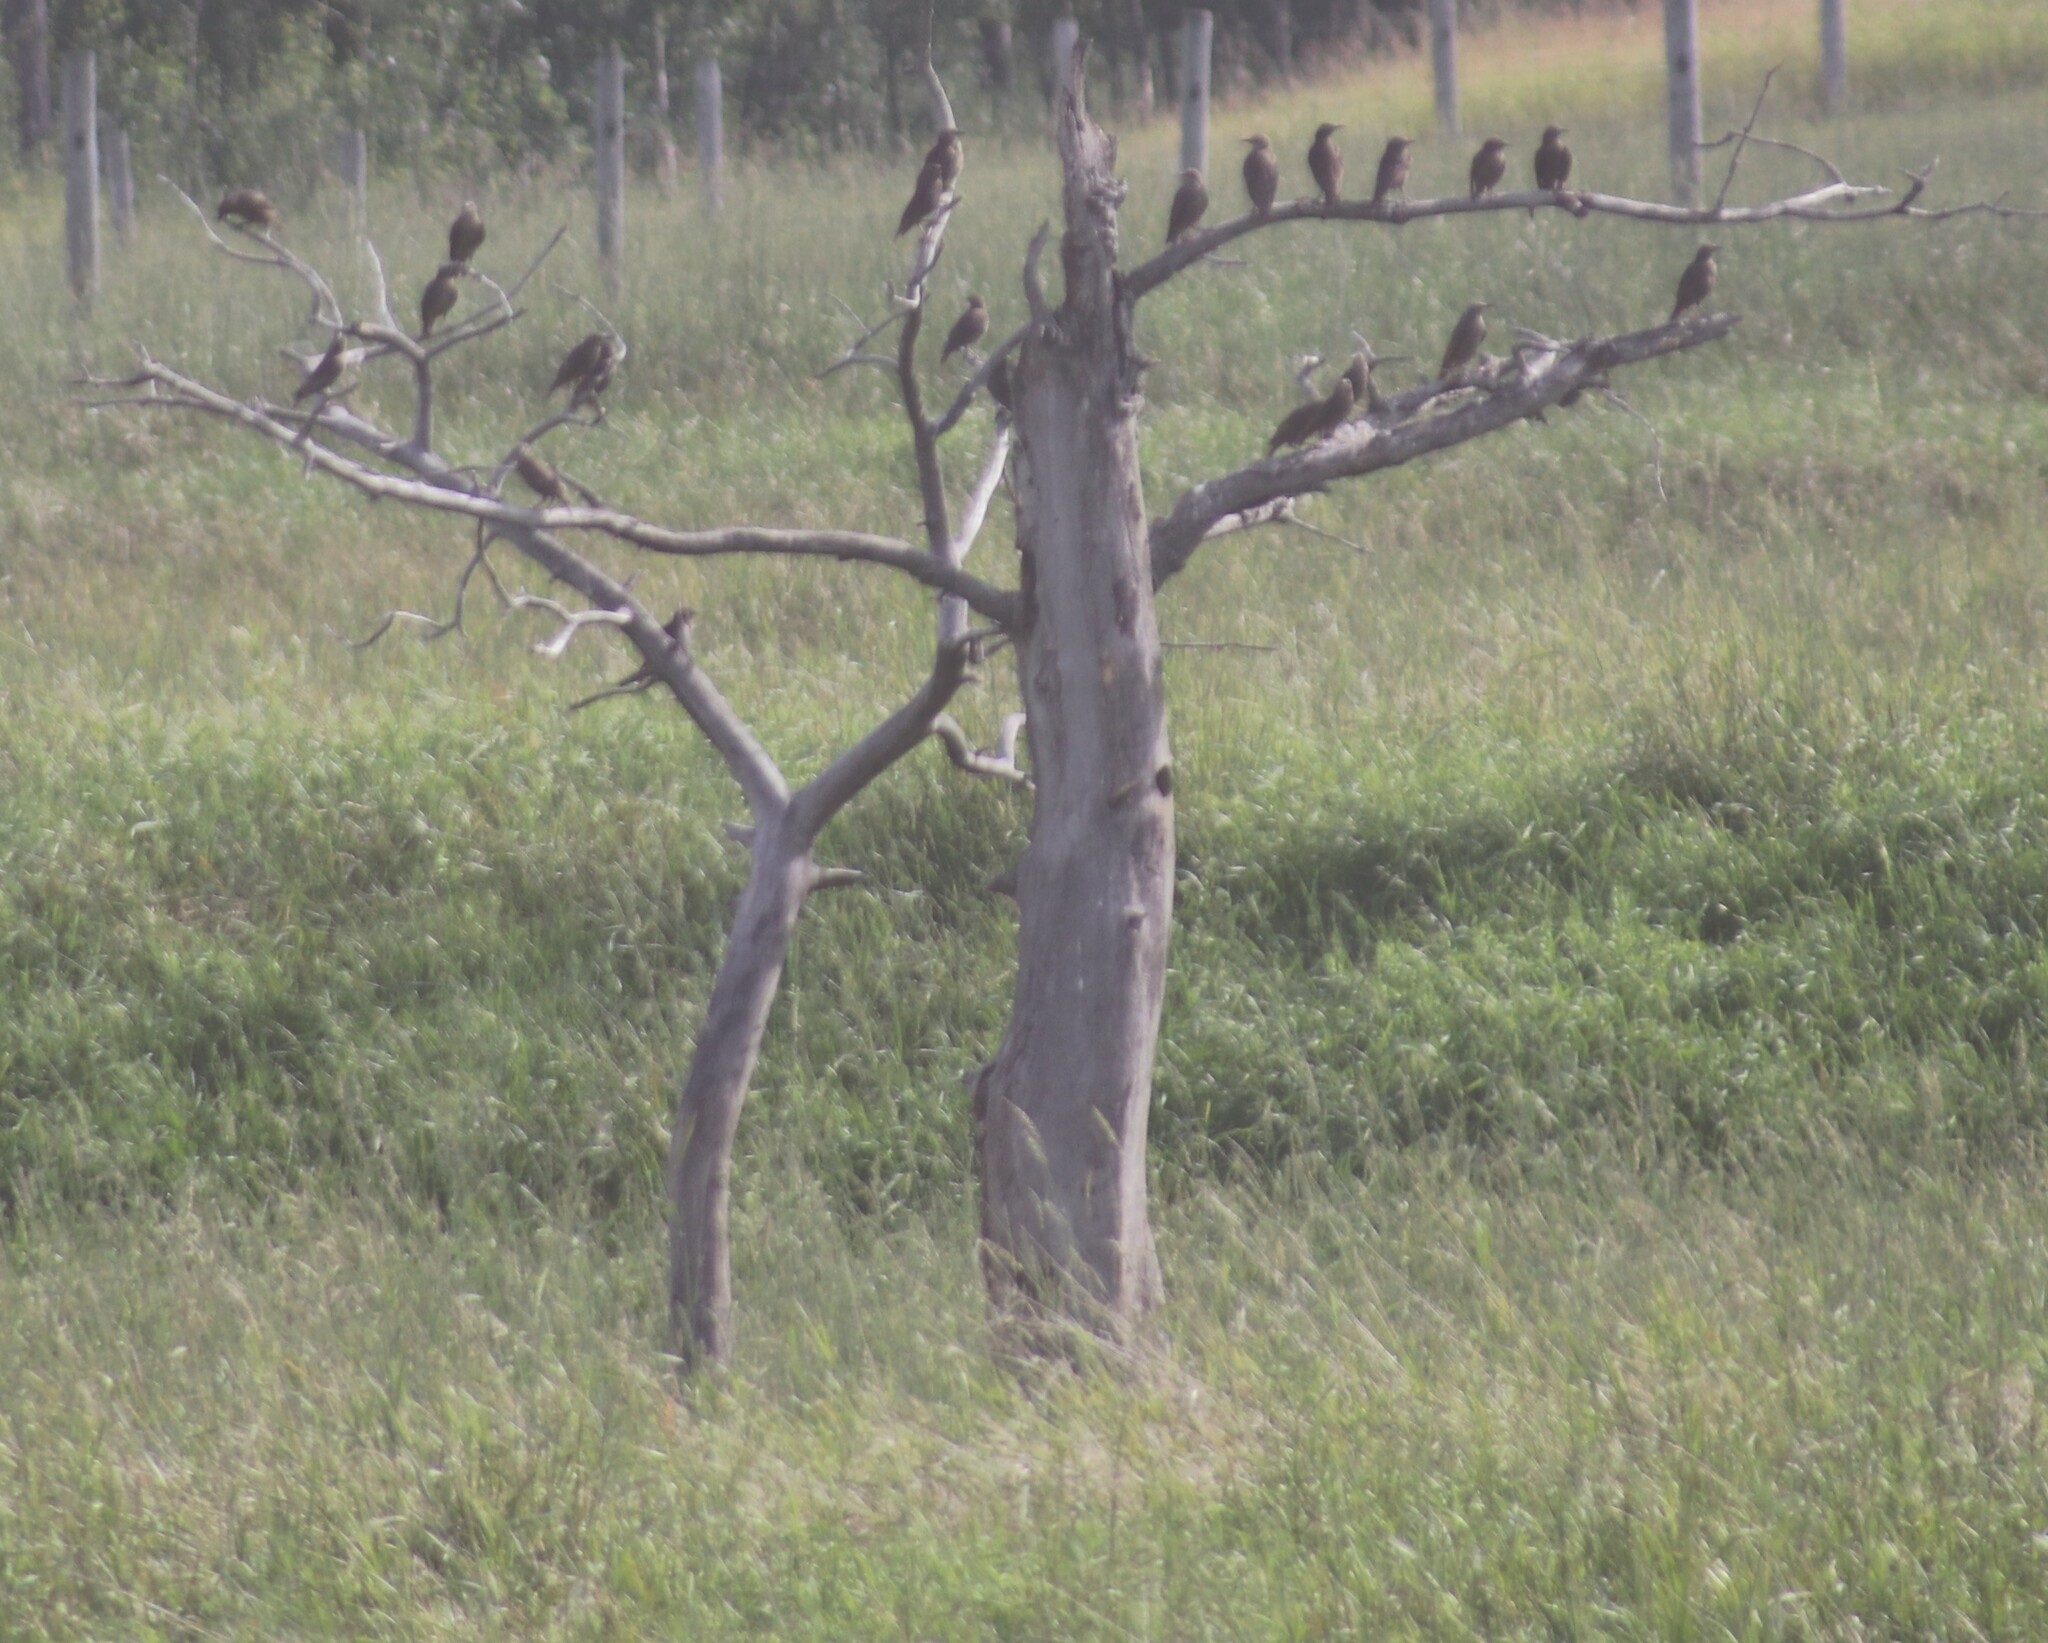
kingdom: Animalia
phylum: Chordata
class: Aves
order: Passeriformes
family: Sturnidae
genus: Sturnus
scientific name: Sturnus vulgaris
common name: Common starling
